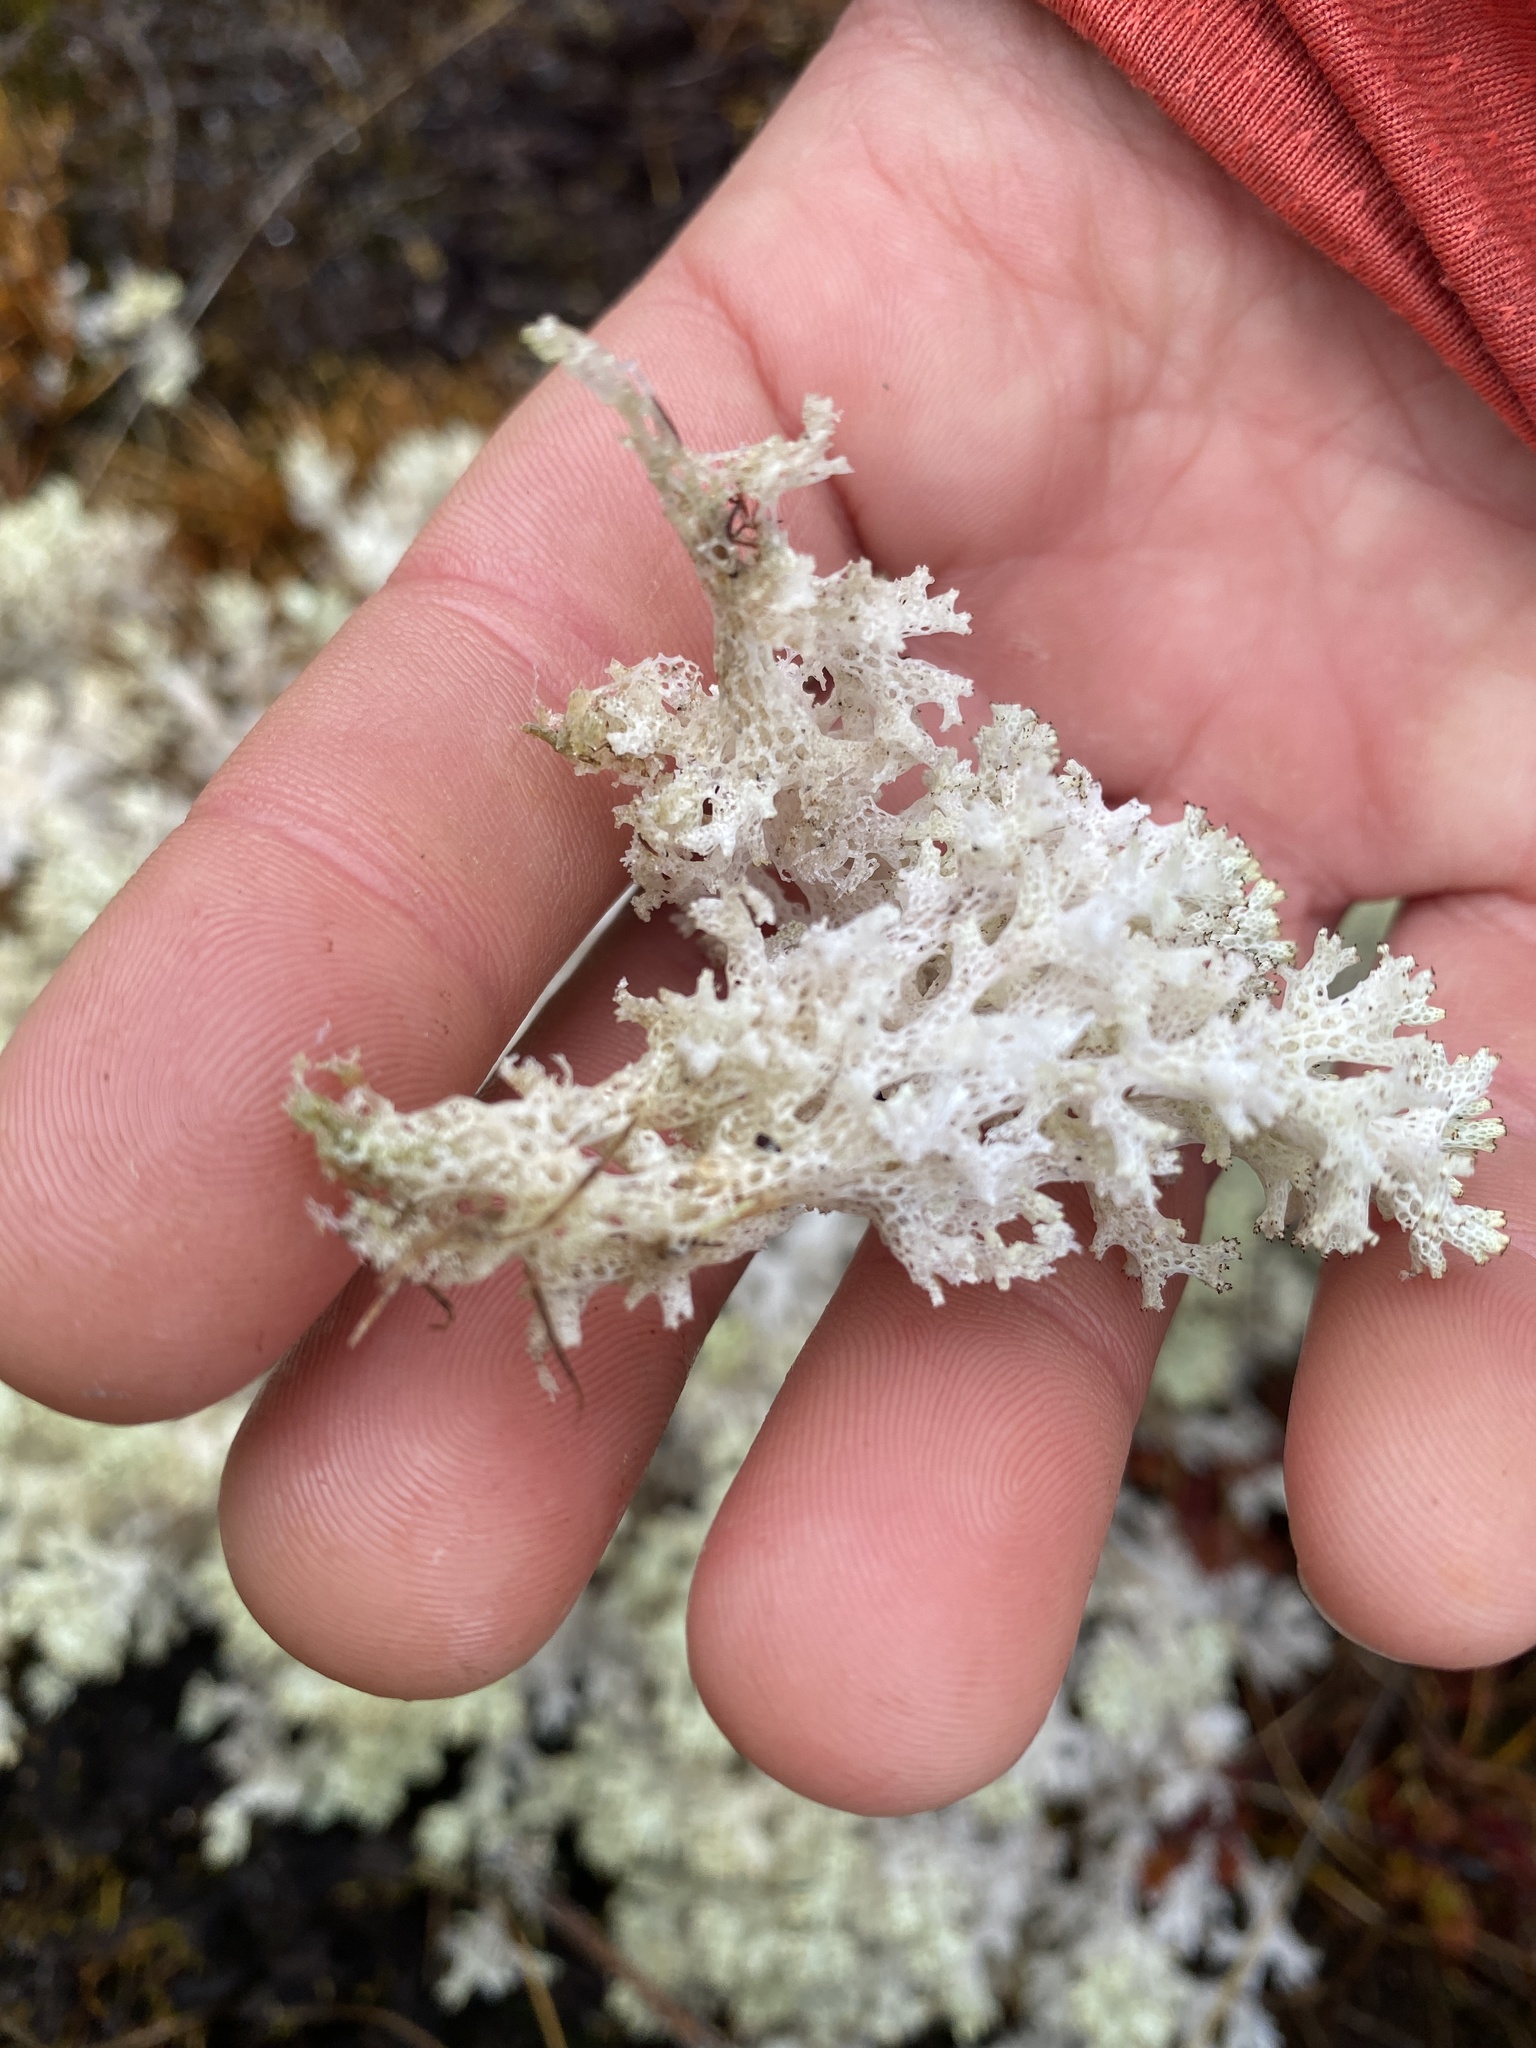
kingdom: Fungi
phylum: Ascomycota
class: Lecanoromycetes
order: Lecanorales
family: Cladoniaceae
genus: Pulchrocladia
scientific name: Pulchrocladia retipora
